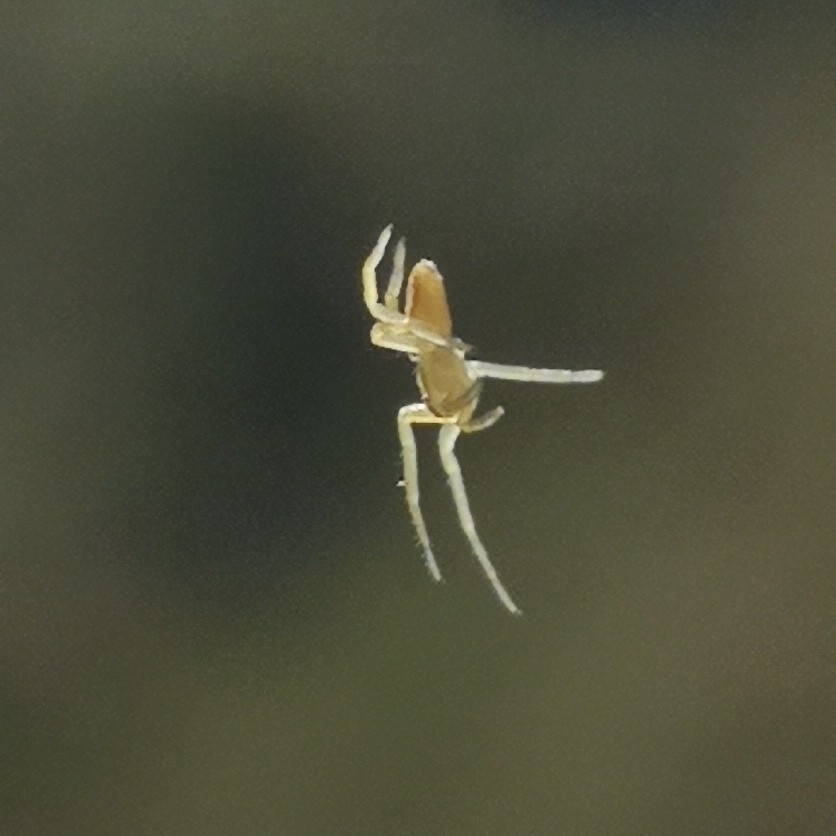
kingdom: Animalia
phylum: Arthropoda
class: Arachnida
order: Araneae
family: Cheiracanthiidae
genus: Cheiracanthium
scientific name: Cheiracanthium
